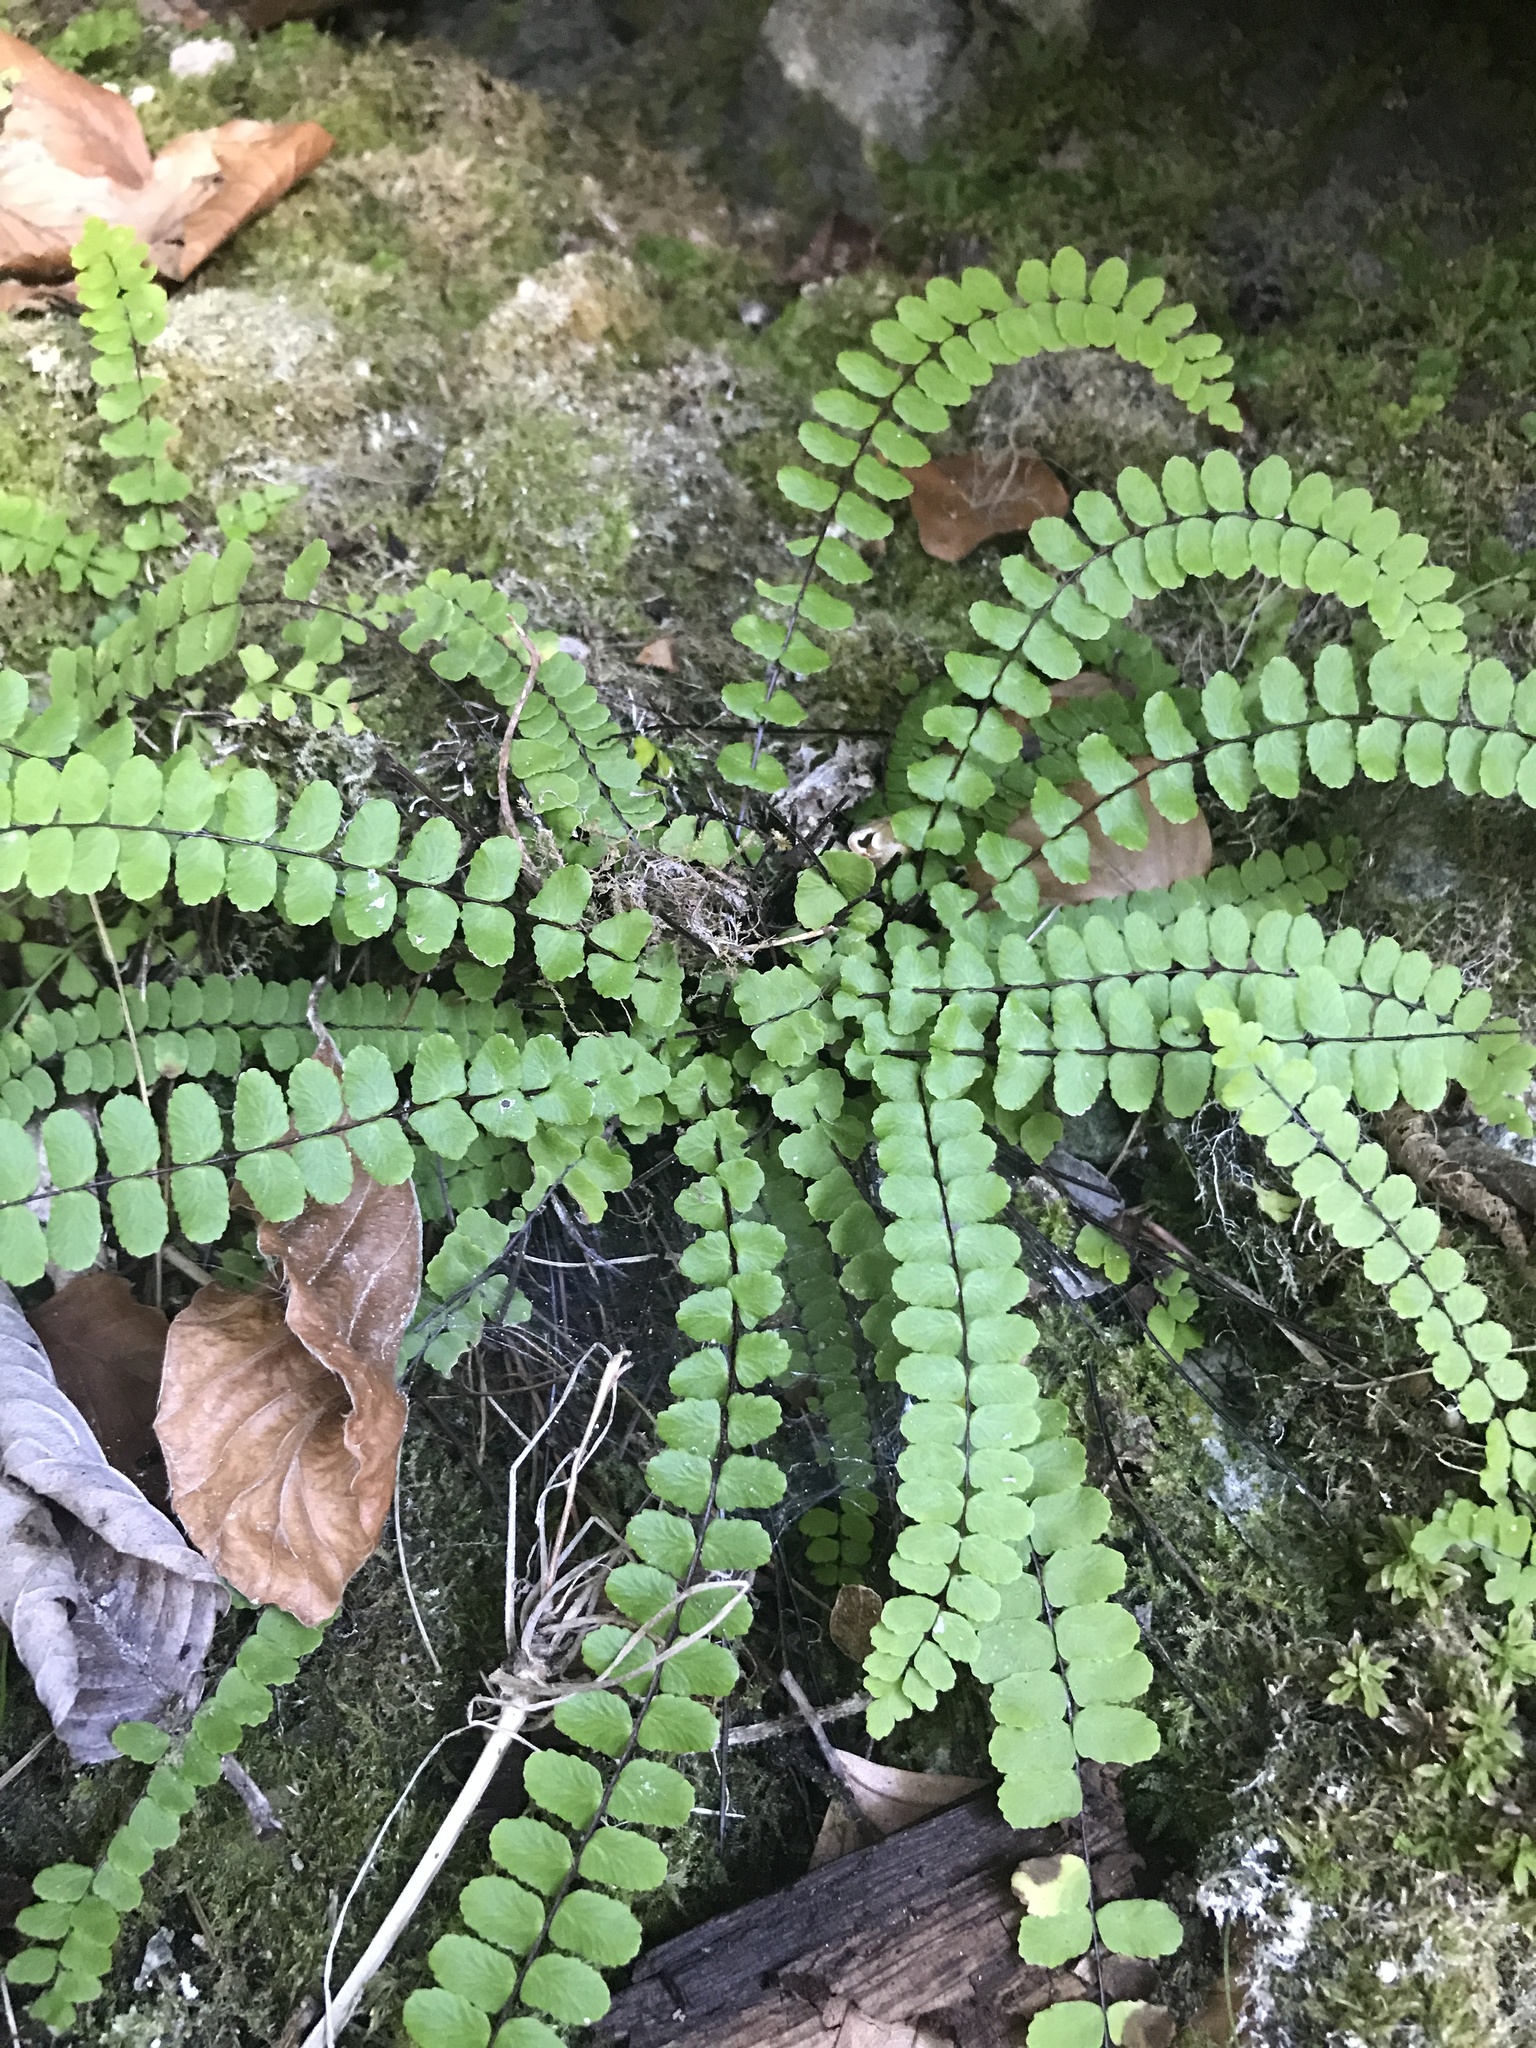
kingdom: Plantae
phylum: Tracheophyta
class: Polypodiopsida
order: Polypodiales
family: Aspleniaceae
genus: Asplenium
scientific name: Asplenium trichomanes
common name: Maidenhair spleenwort
